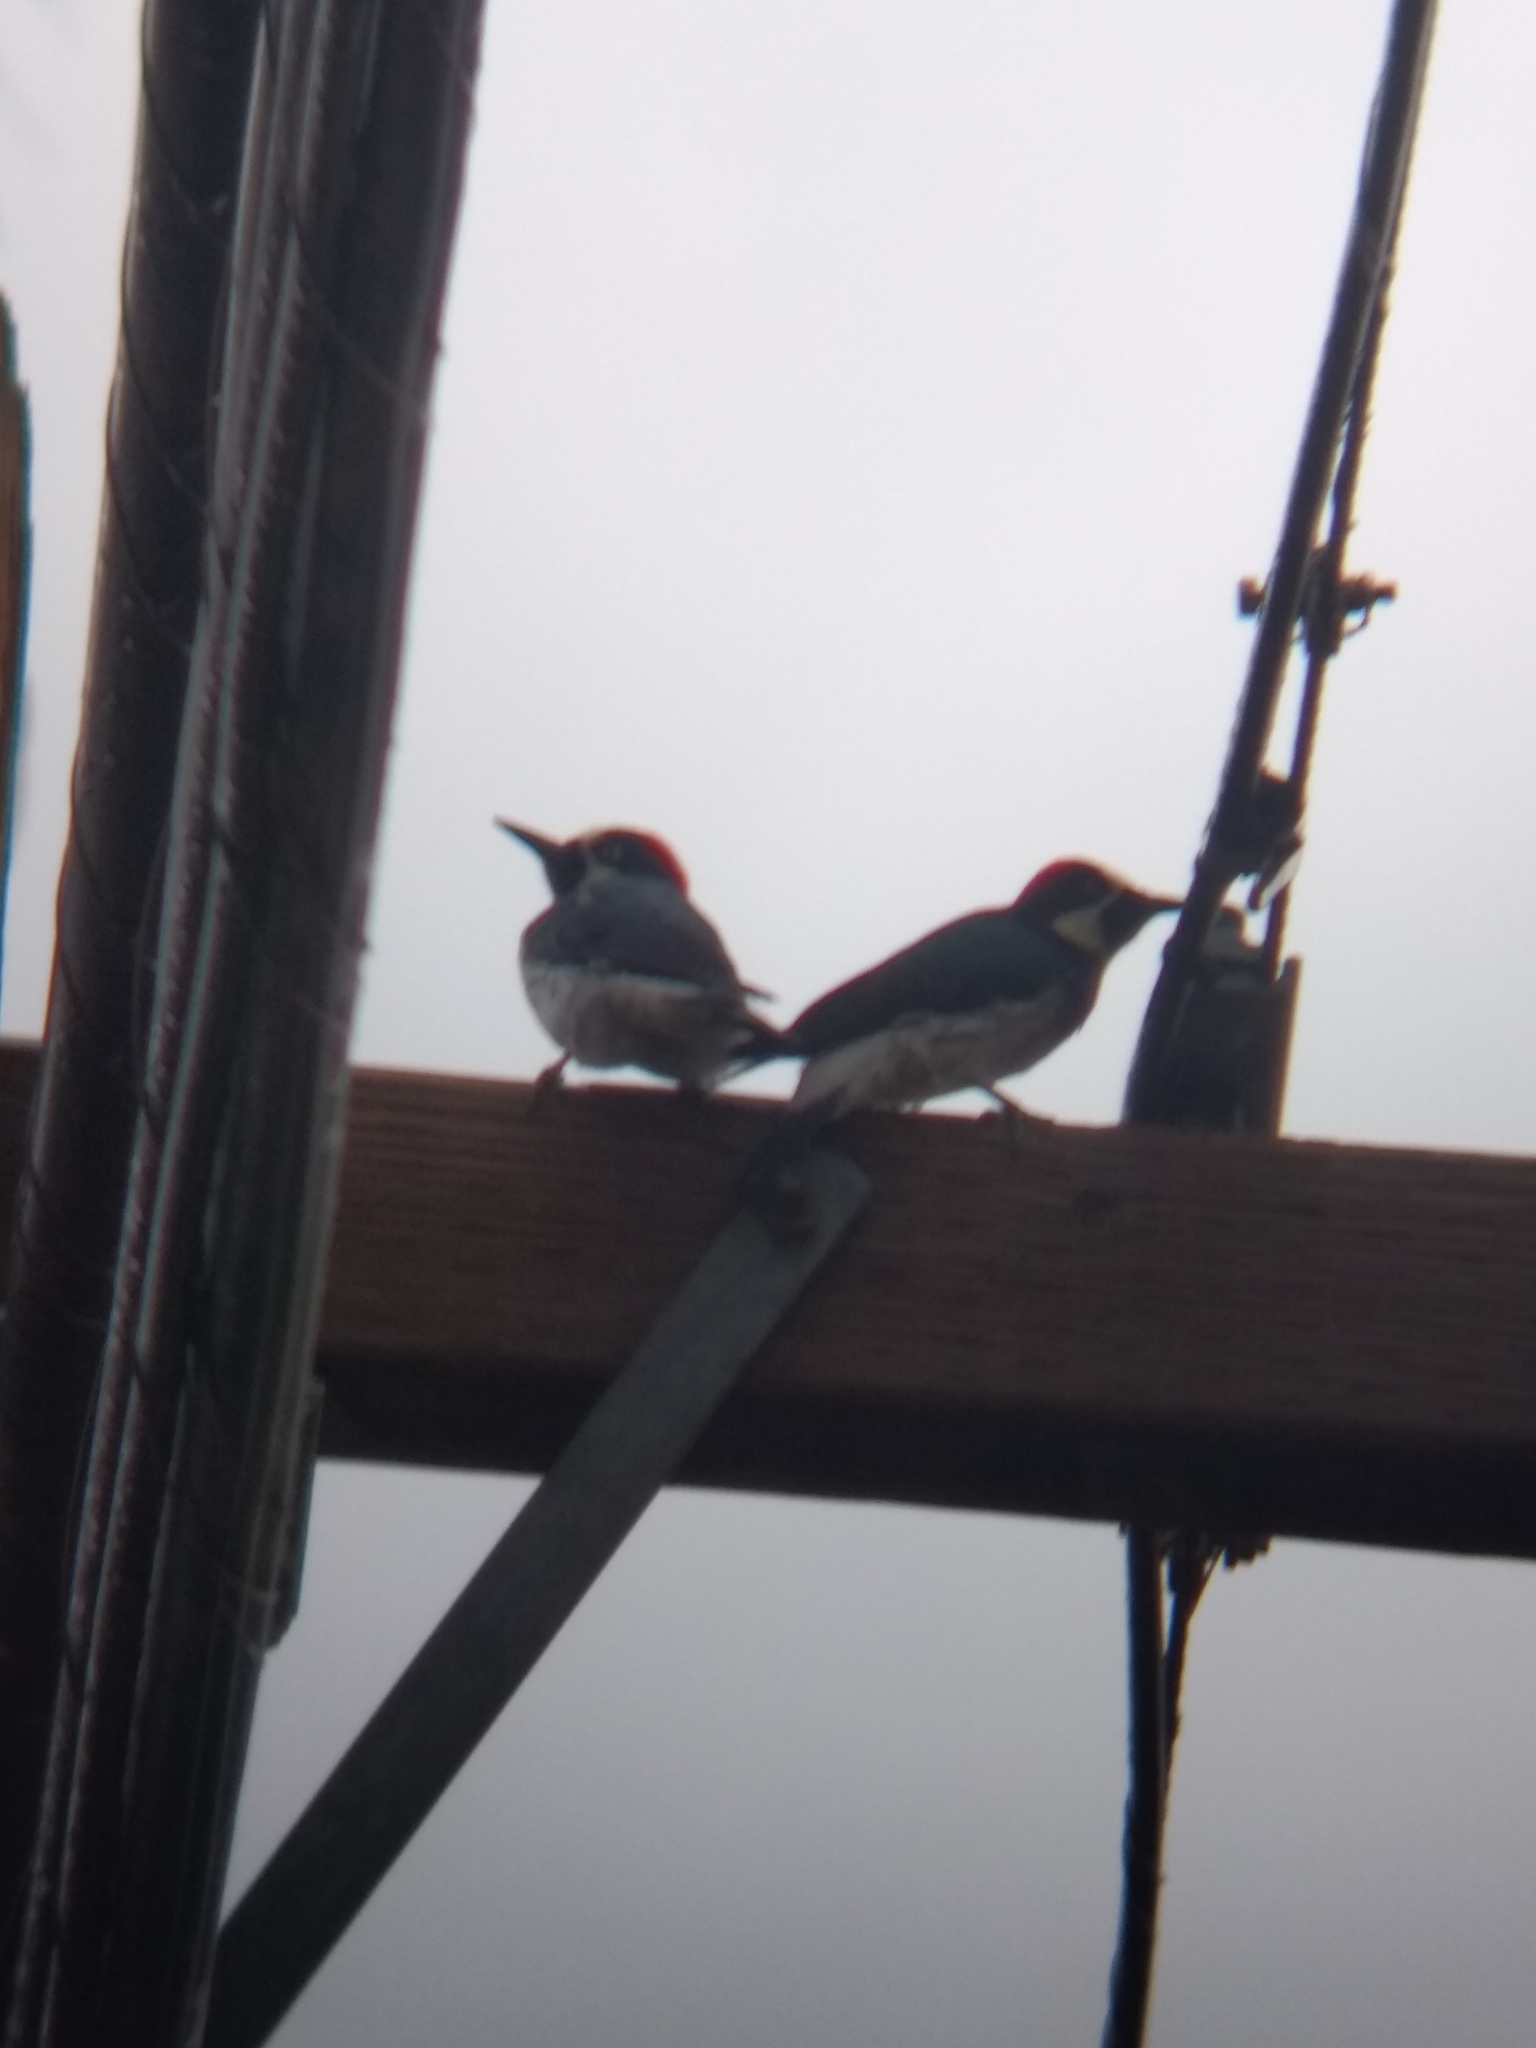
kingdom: Animalia
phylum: Chordata
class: Aves
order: Piciformes
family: Picidae
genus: Melanerpes
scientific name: Melanerpes formicivorus
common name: Acorn woodpecker
